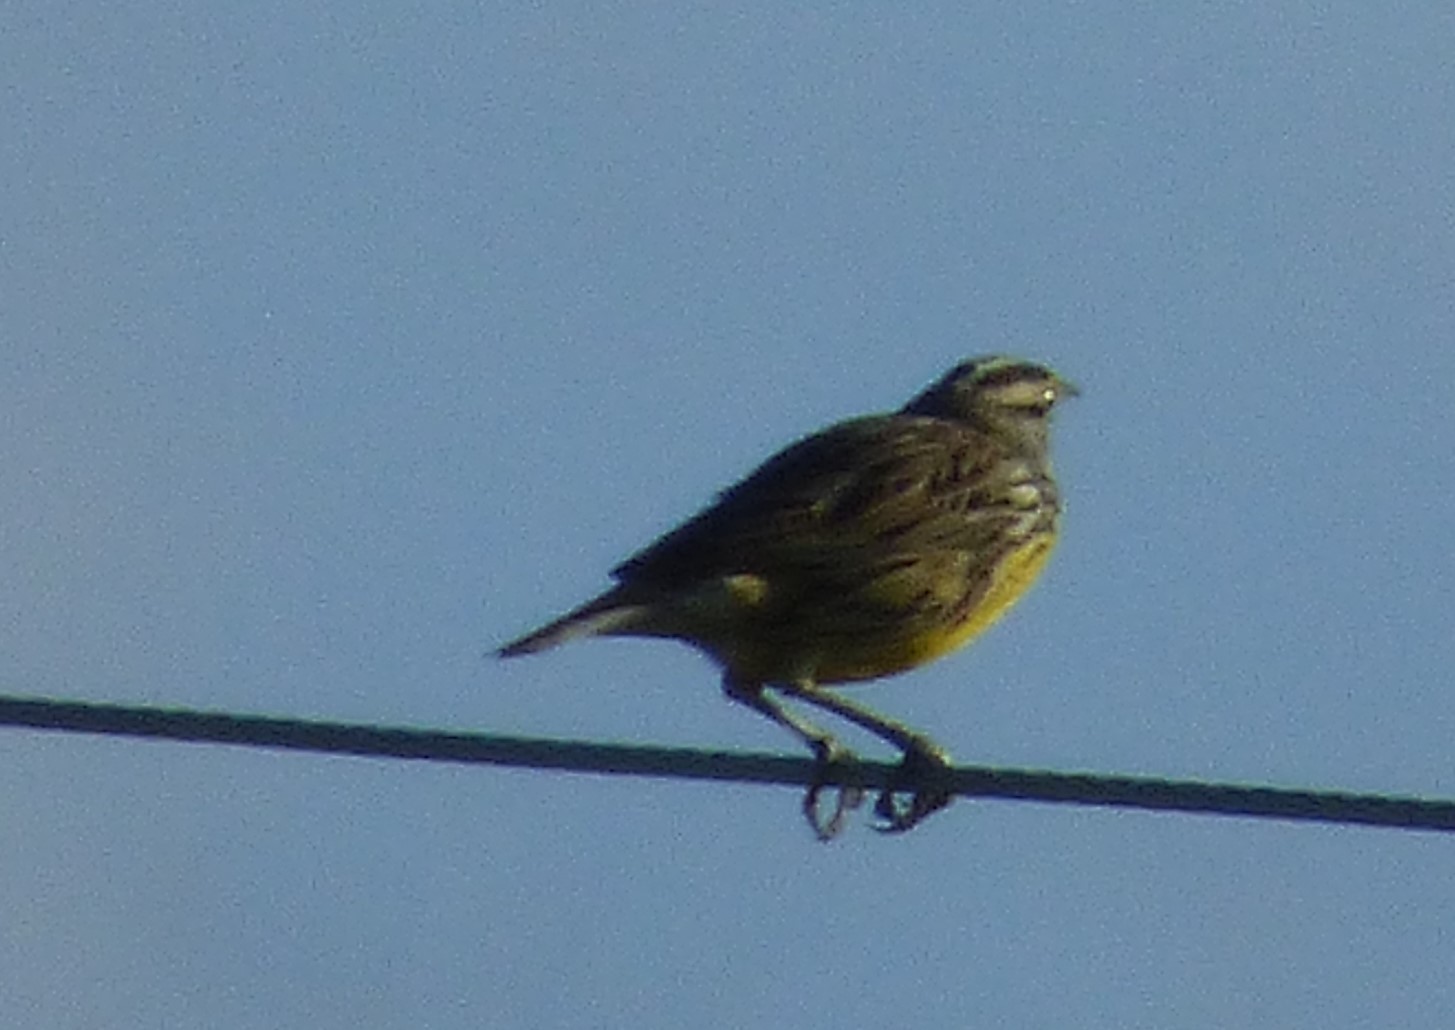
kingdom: Animalia
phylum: Chordata
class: Aves
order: Passeriformes
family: Icteridae
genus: Sturnella
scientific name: Sturnella magna
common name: Eastern meadowlark
